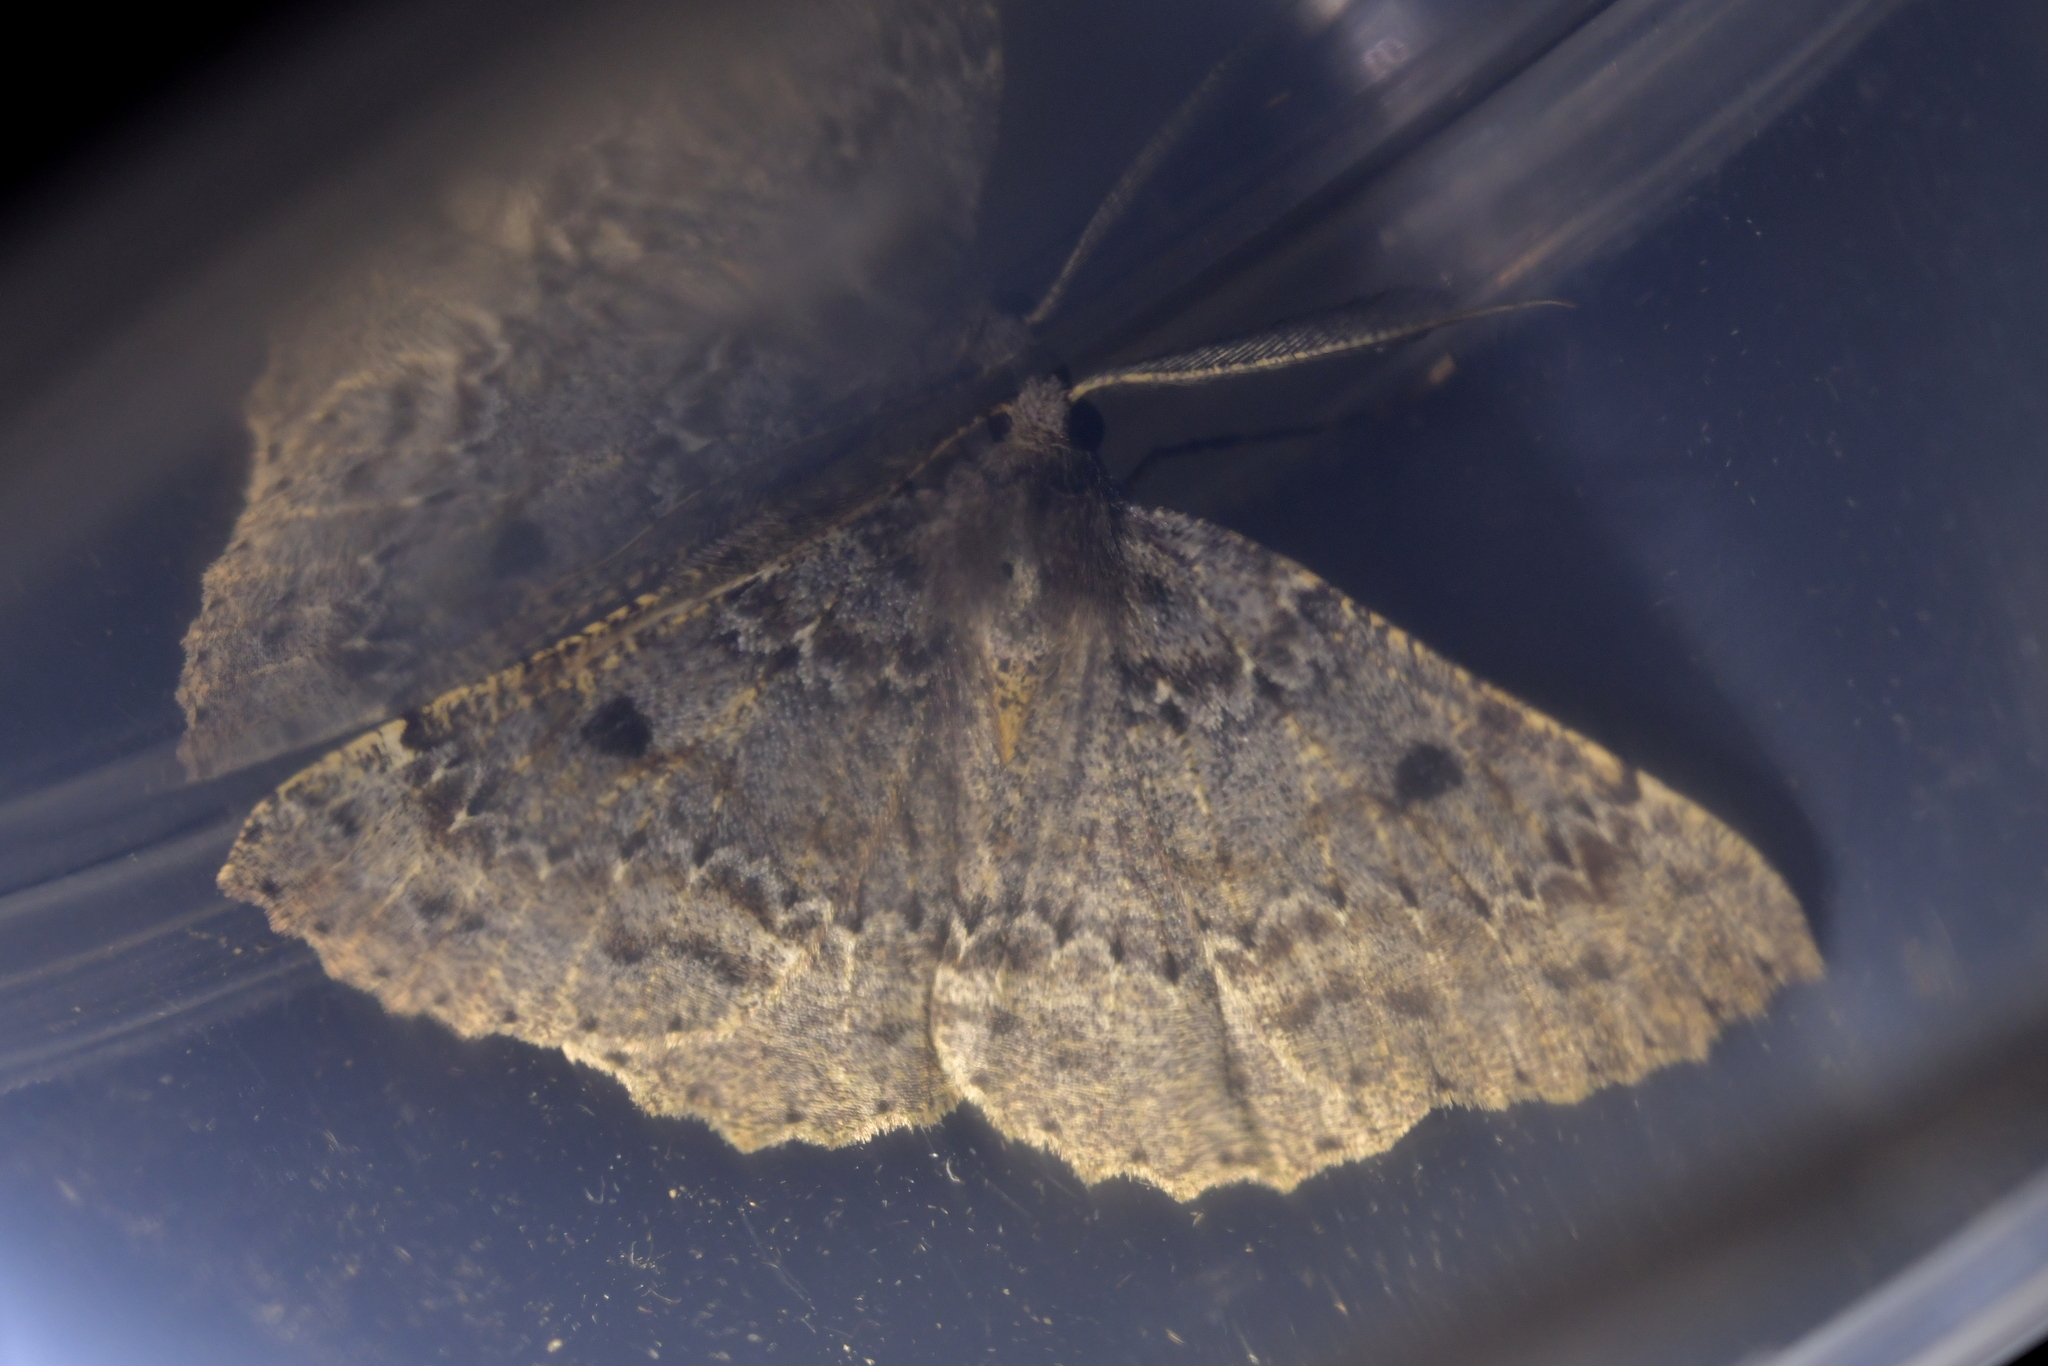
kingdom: Animalia
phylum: Arthropoda
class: Insecta
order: Lepidoptera
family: Geometridae
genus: Cleora
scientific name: Cleora scriptaria
